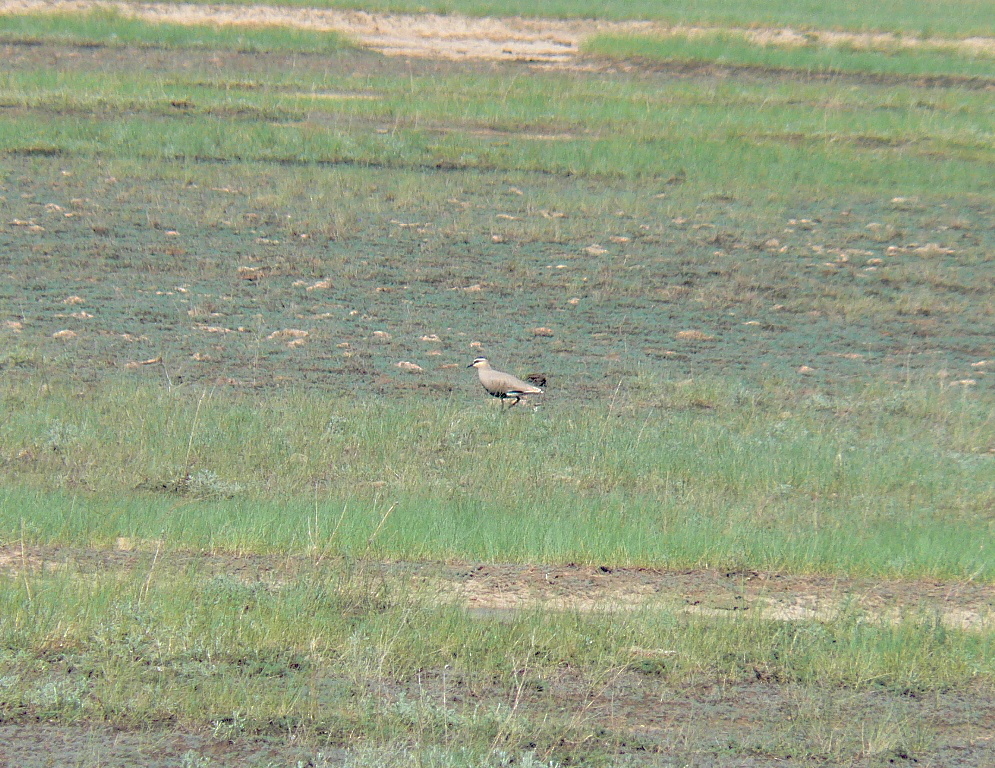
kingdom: Animalia
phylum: Chordata
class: Aves
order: Charadriiformes
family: Charadriidae
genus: Vanellus
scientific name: Vanellus gregarius
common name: Sociable lapwing
